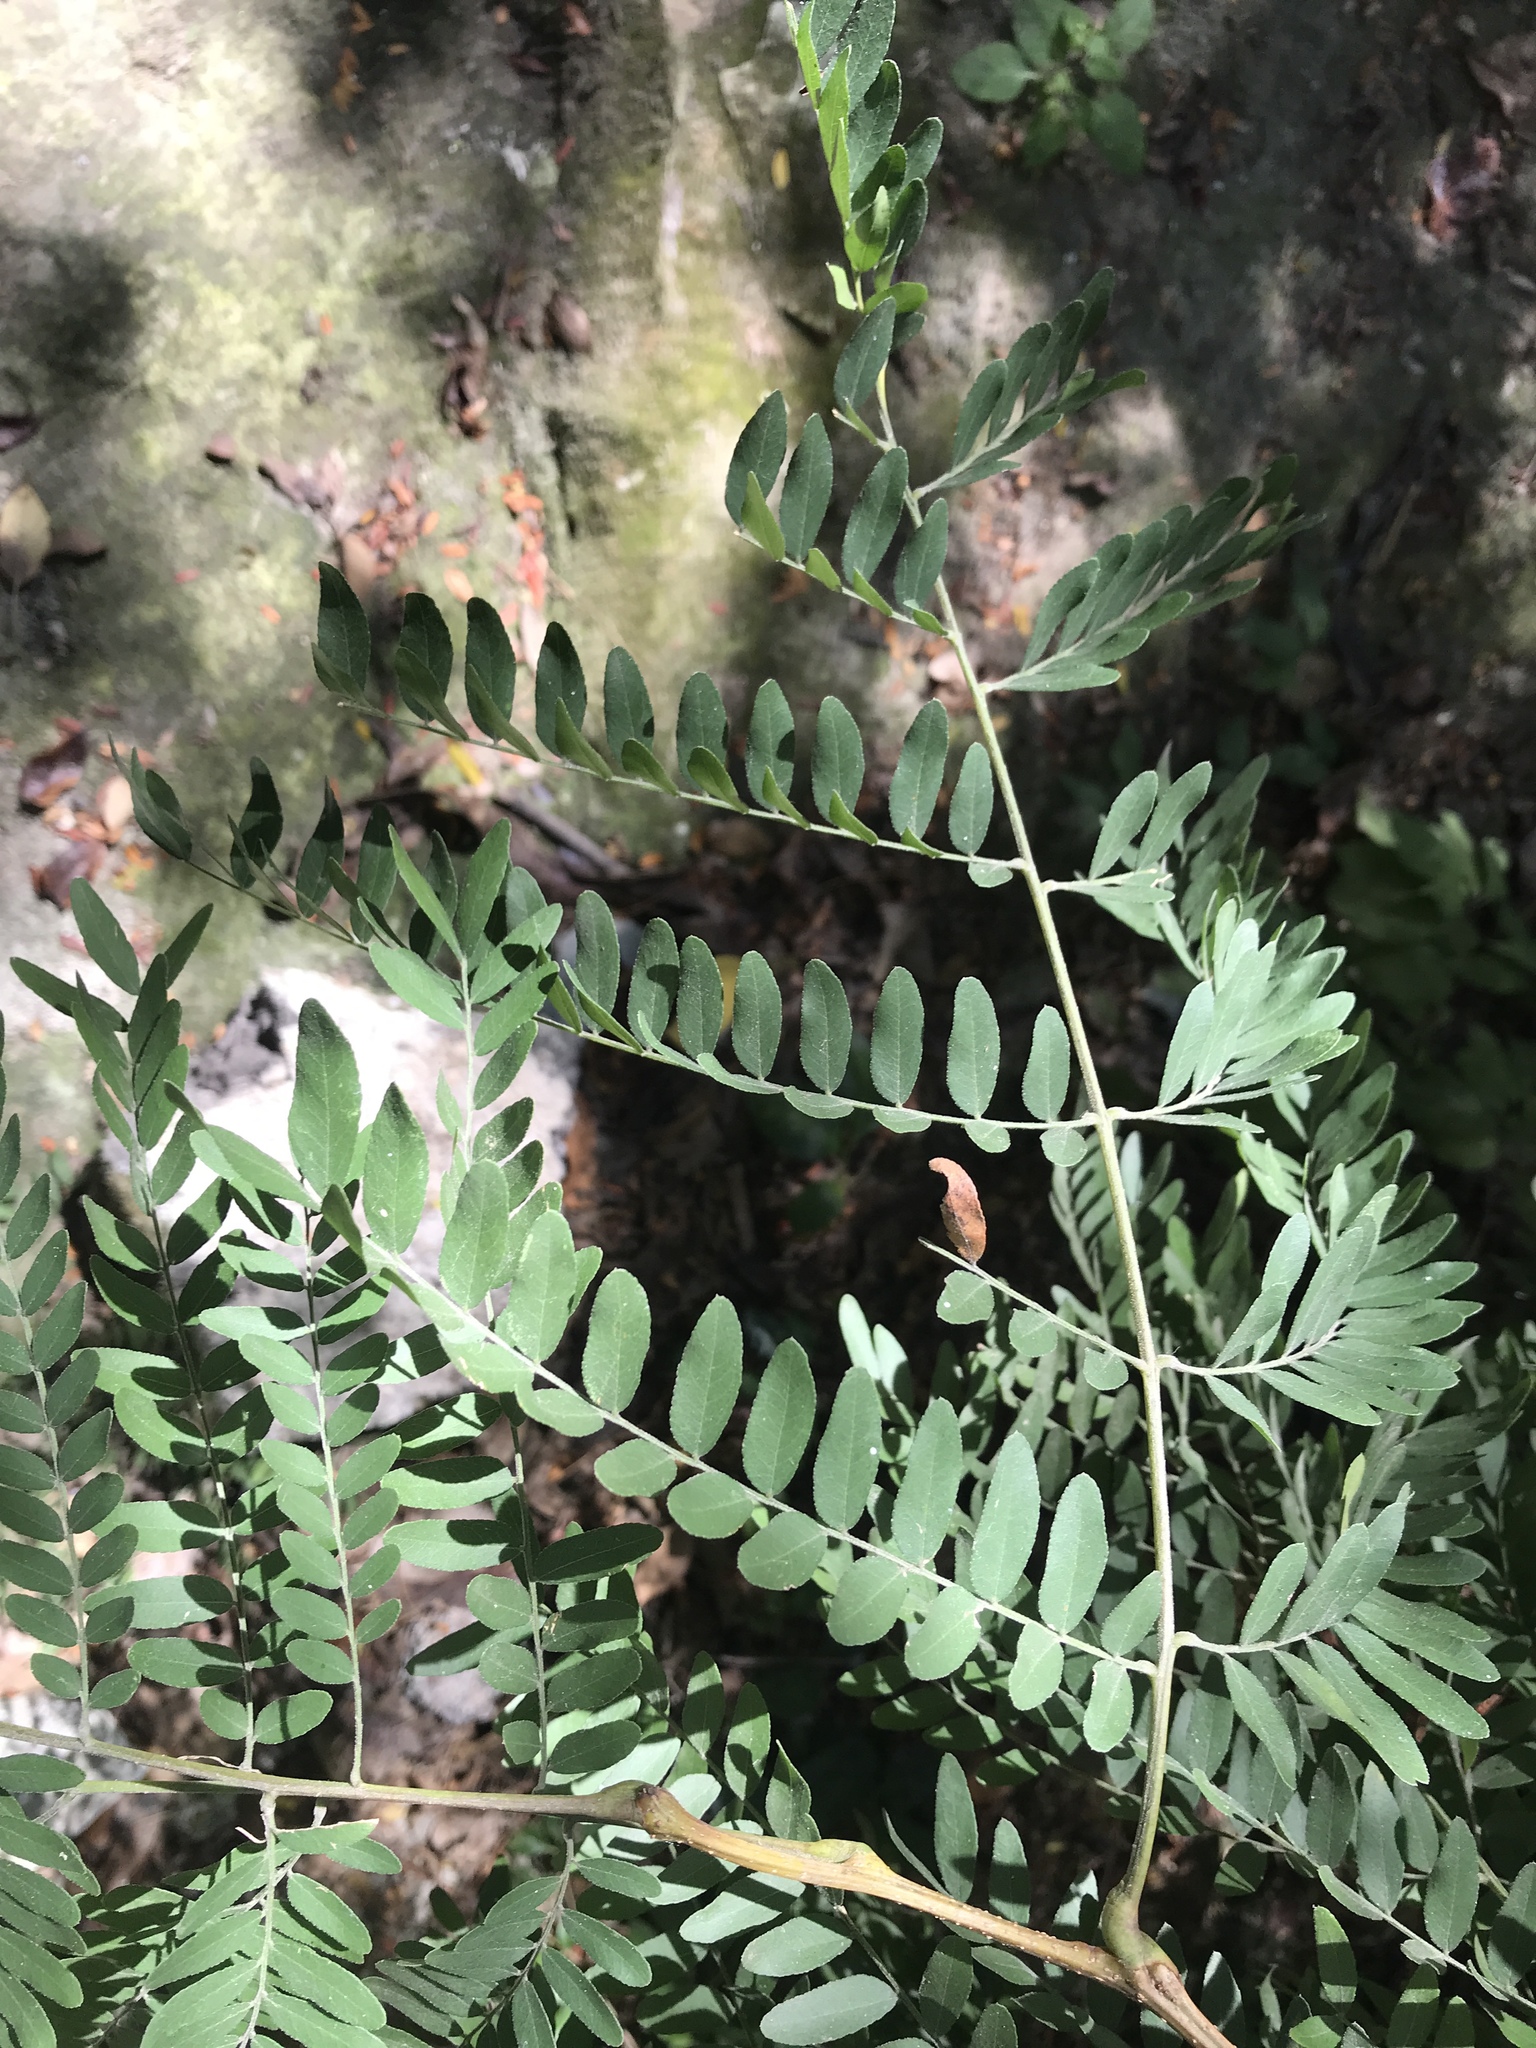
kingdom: Plantae
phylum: Tracheophyta
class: Magnoliopsida
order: Fabales
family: Fabaceae
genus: Gleditsia
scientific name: Gleditsia triacanthos
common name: Common honeylocust
